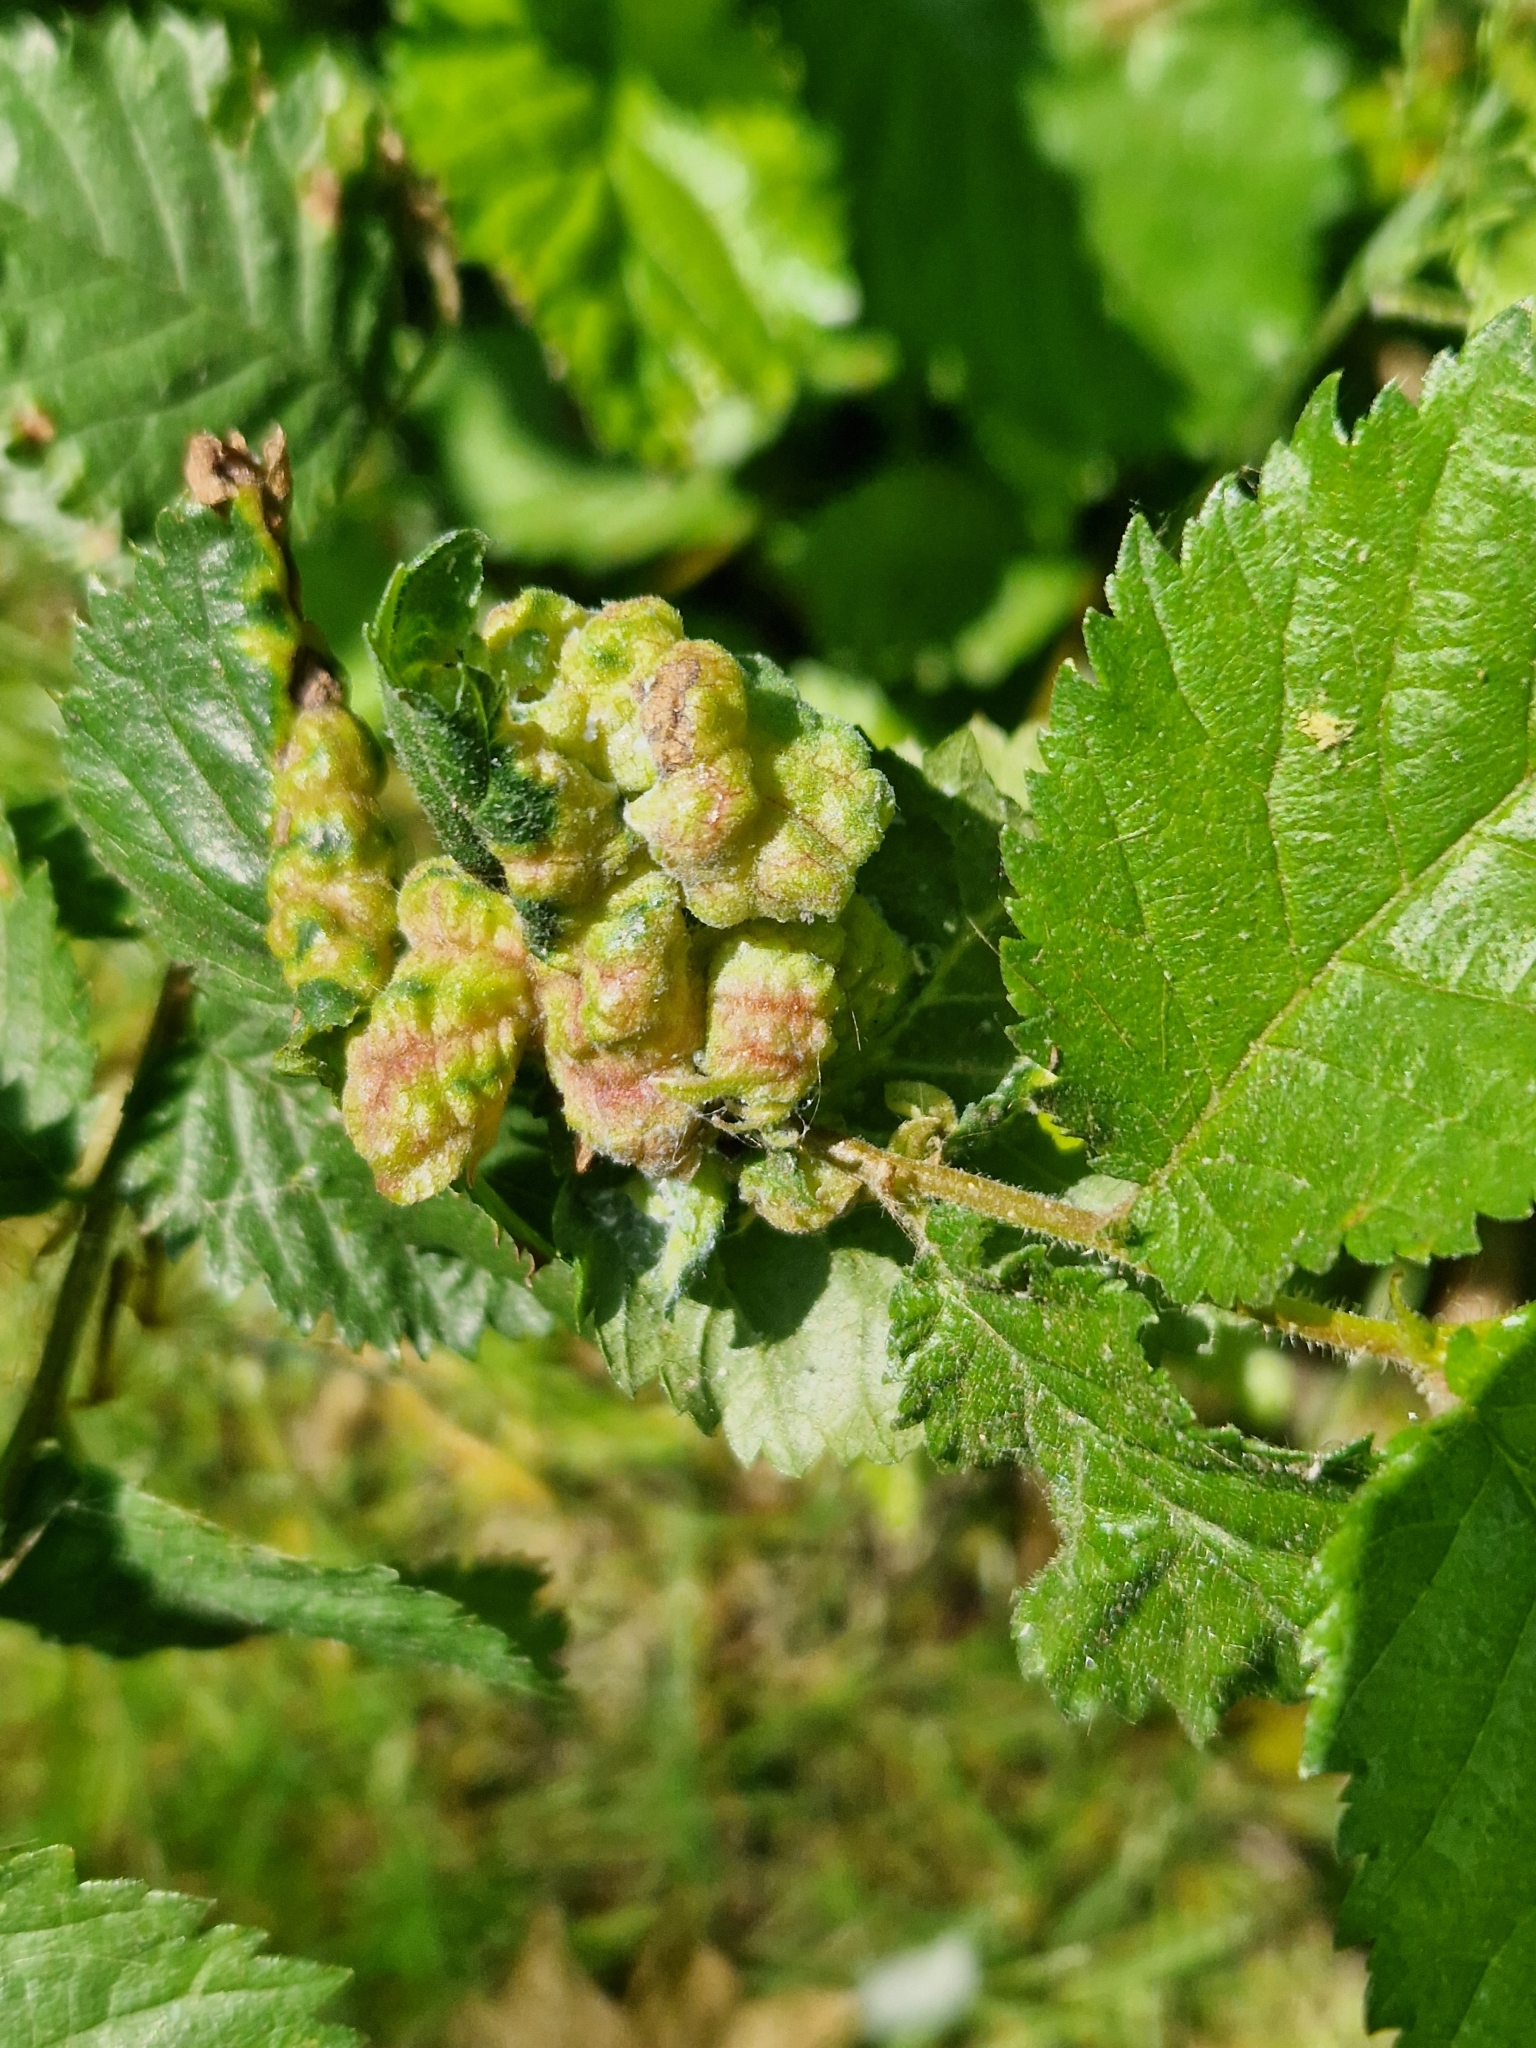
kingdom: Animalia
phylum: Arthropoda
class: Insecta
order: Hemiptera
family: Aphididae
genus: Eriosoma
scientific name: Eriosoma lanuginosum
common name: Aphid
